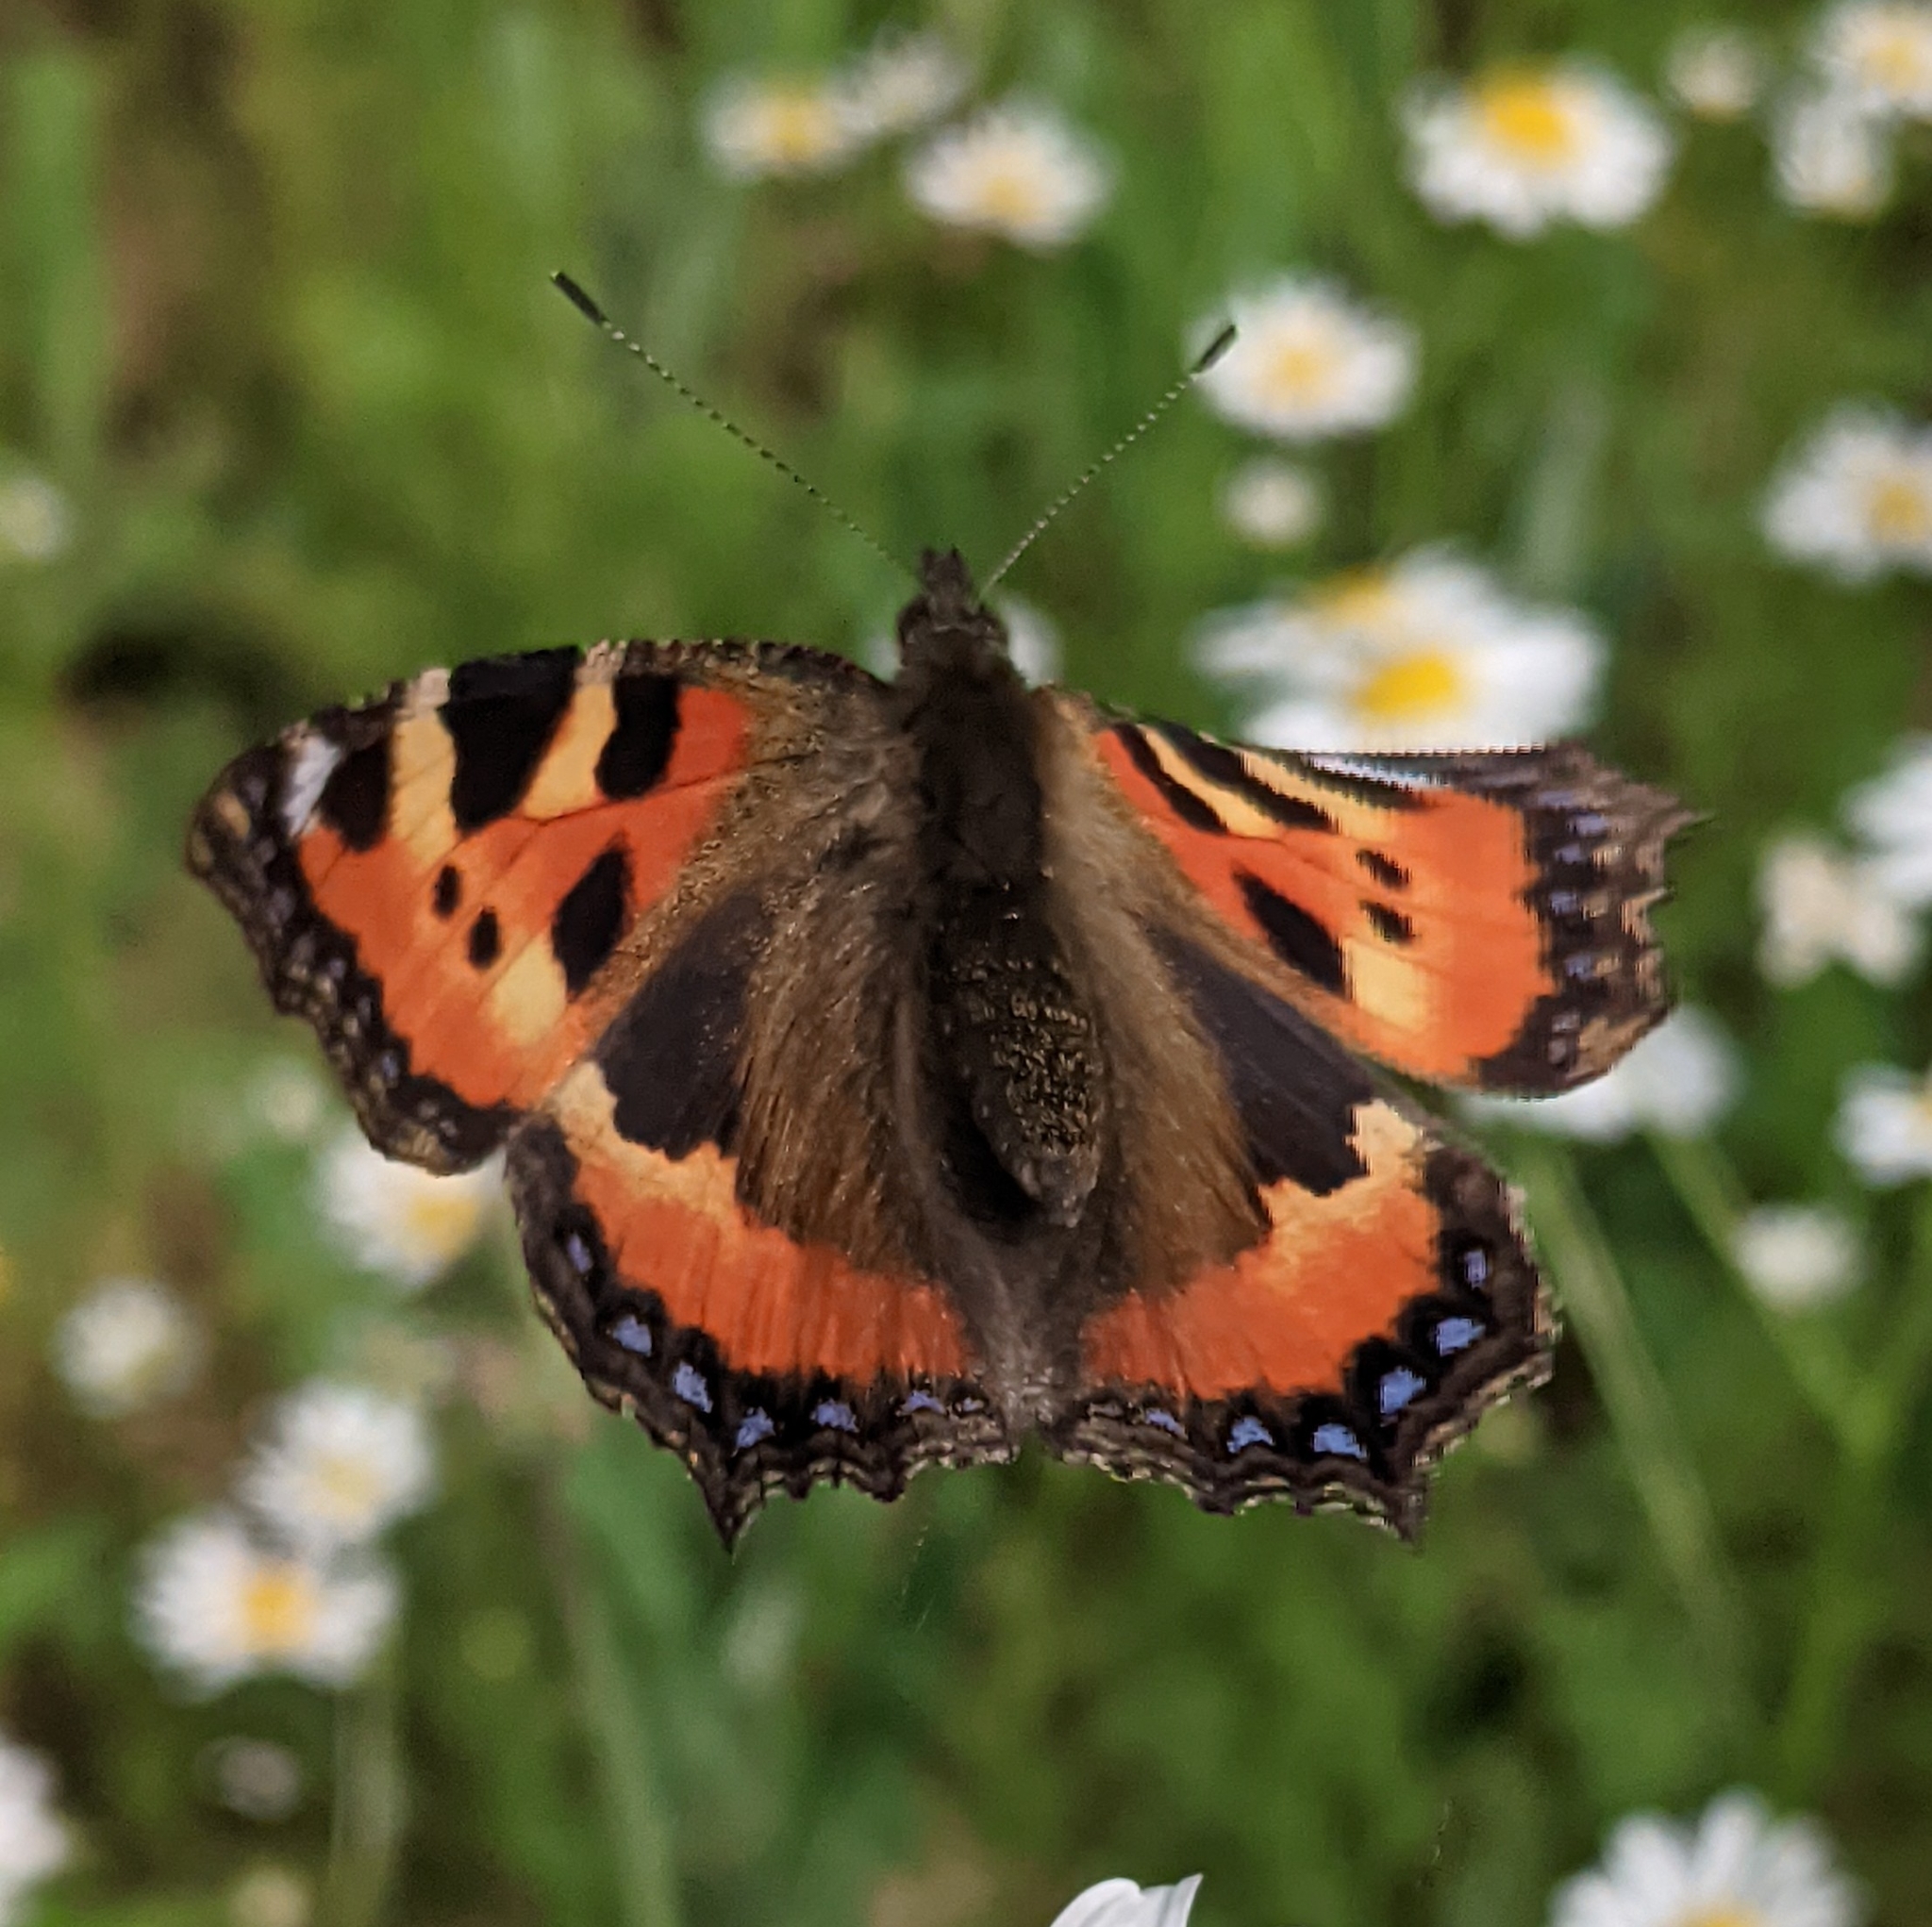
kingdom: Animalia
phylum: Arthropoda
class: Insecta
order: Lepidoptera
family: Nymphalidae
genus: Aglais
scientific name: Aglais urticae
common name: Small tortoiseshell
